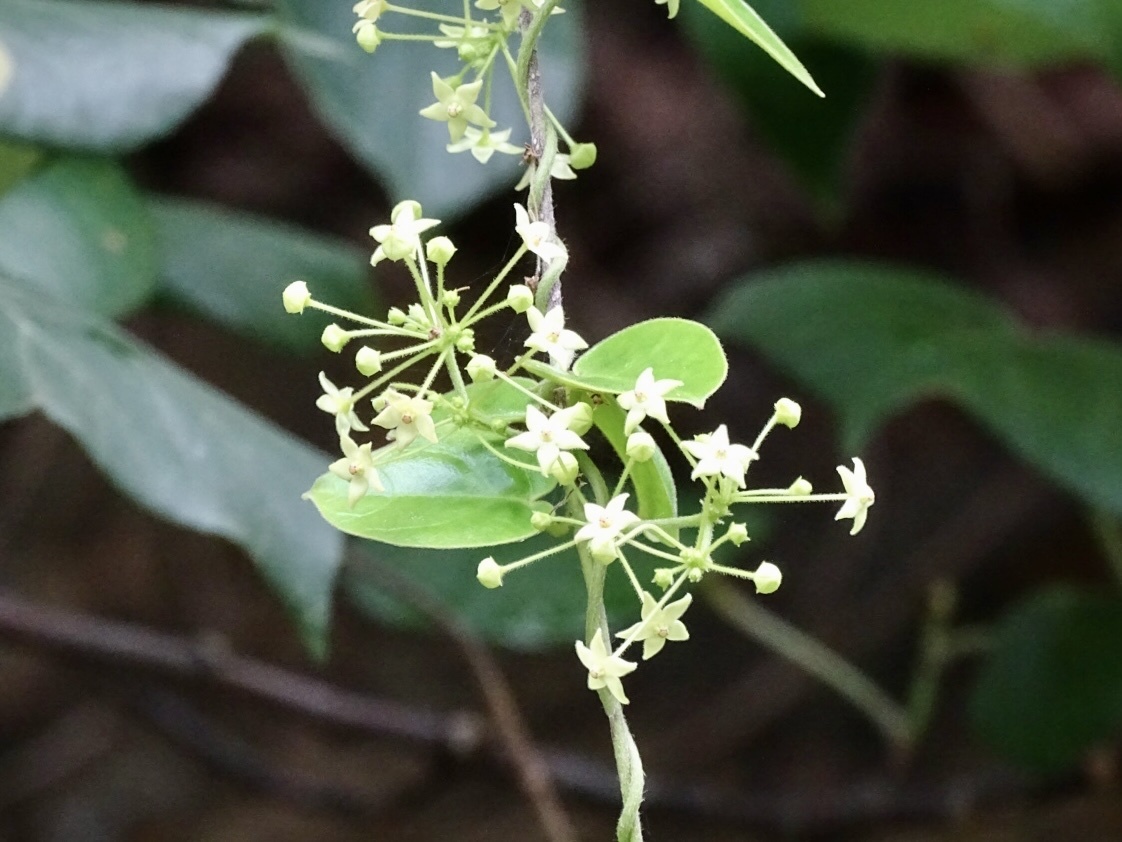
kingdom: Plantae
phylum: Tracheophyta
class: Magnoliopsida
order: Gentianales
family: Apocynaceae
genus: Vincetoxicum
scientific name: Vincetoxicum hirsutum
